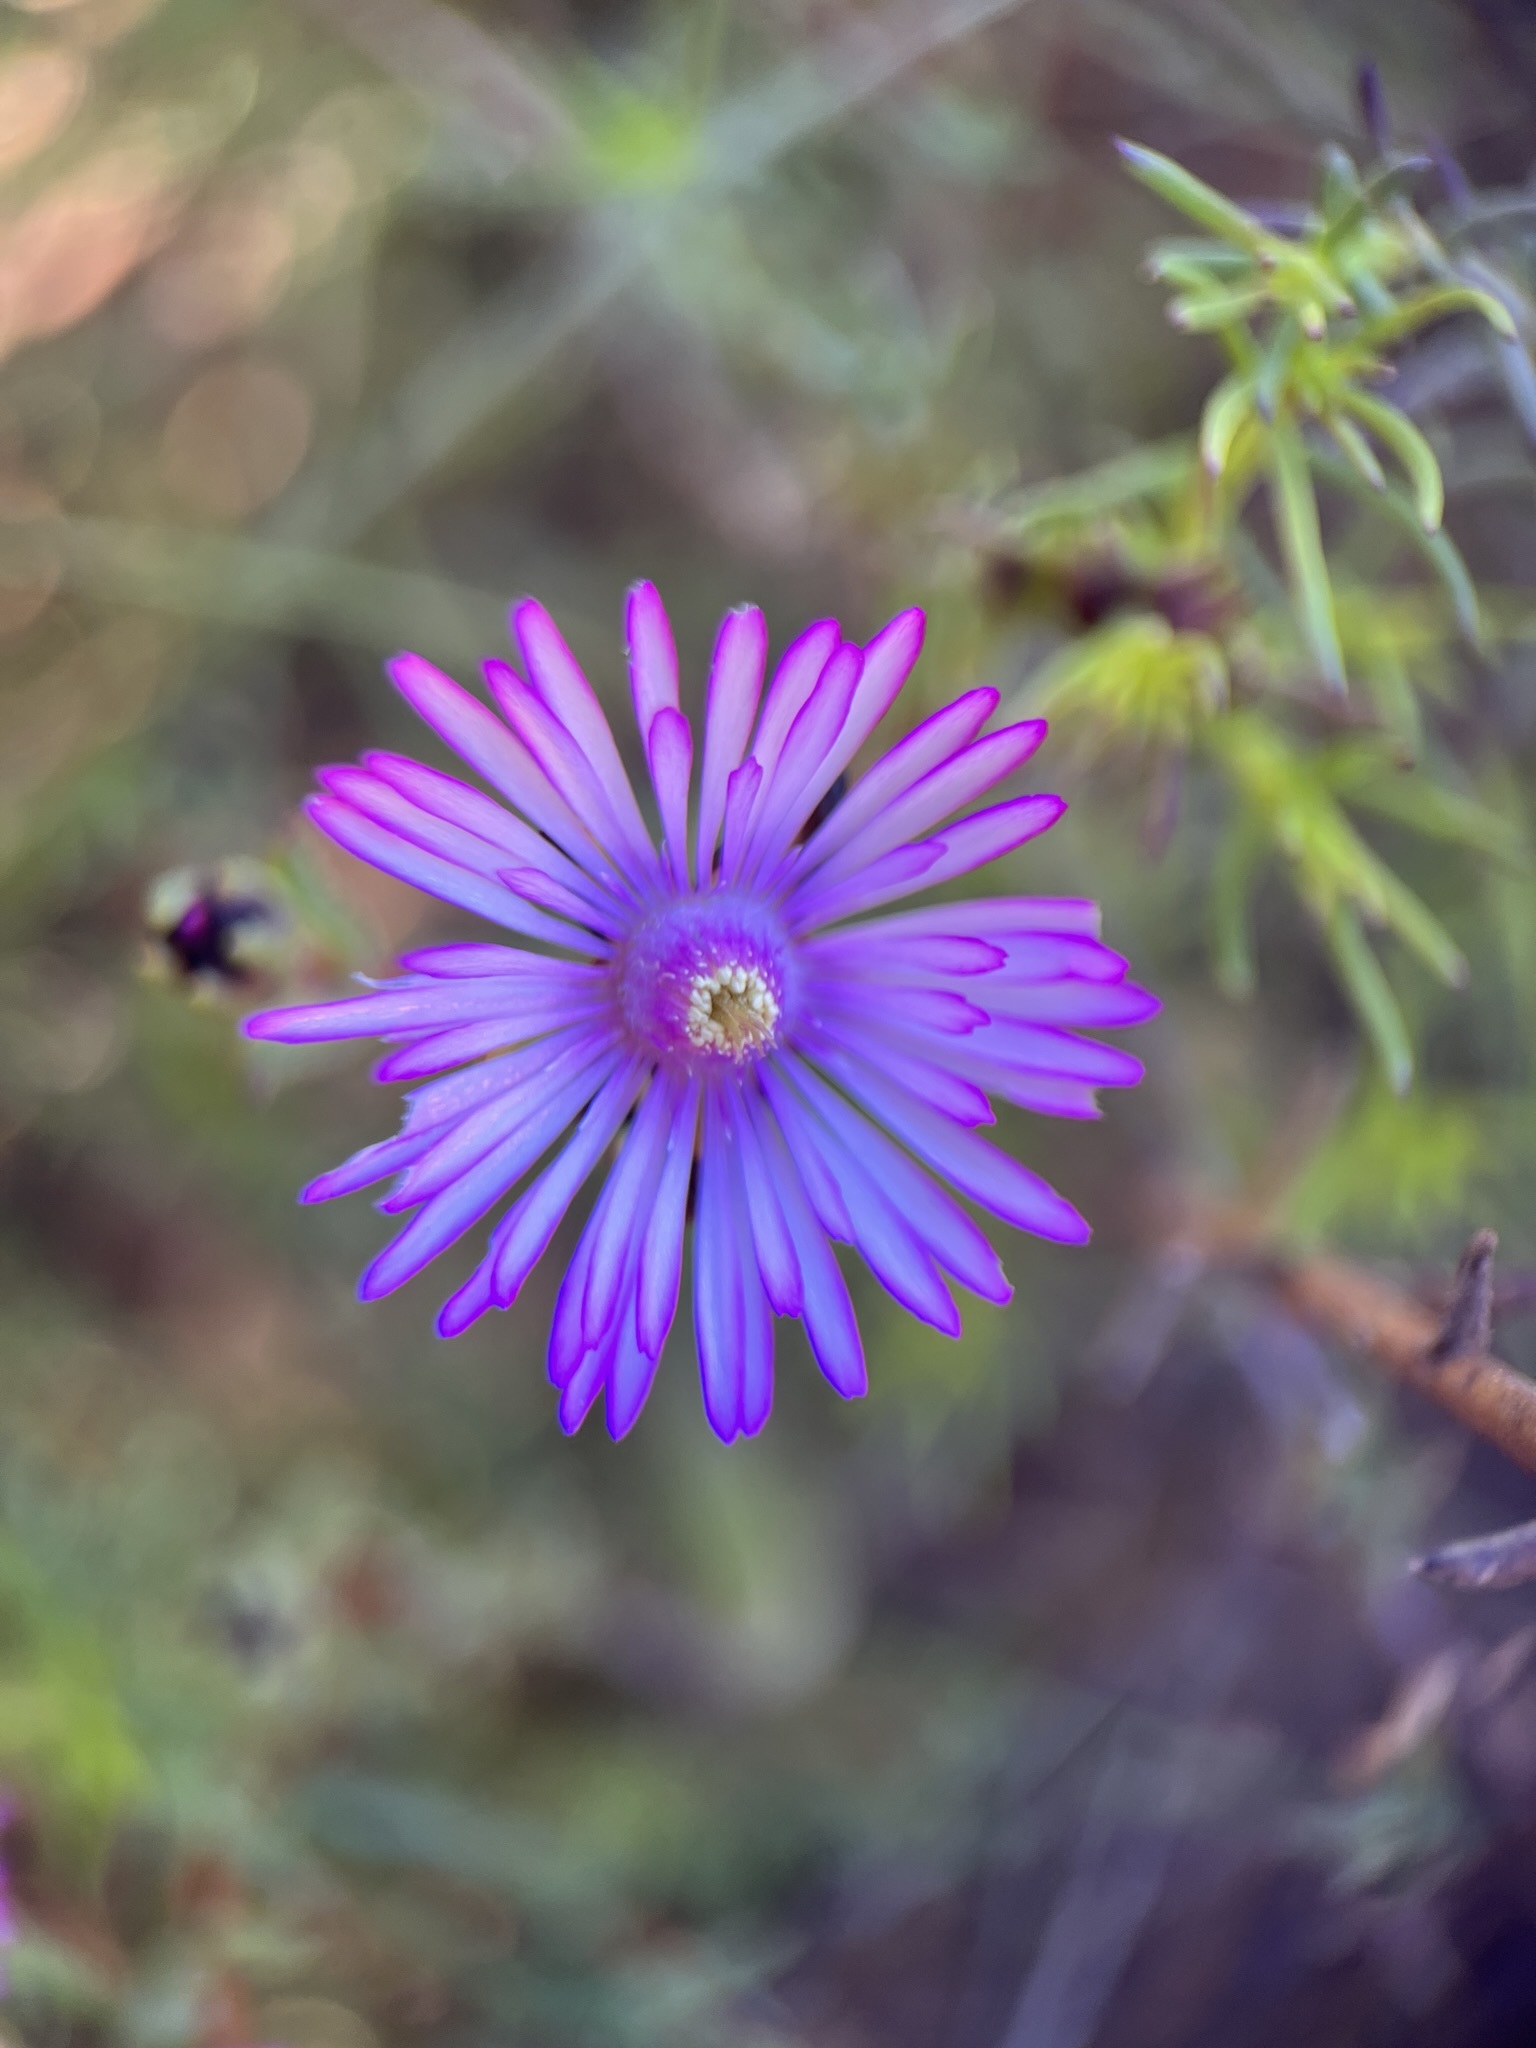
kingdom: Plantae
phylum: Tracheophyta
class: Magnoliopsida
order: Caryophyllales
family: Aizoaceae
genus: Lampranthus
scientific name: Lampranthus elegans
